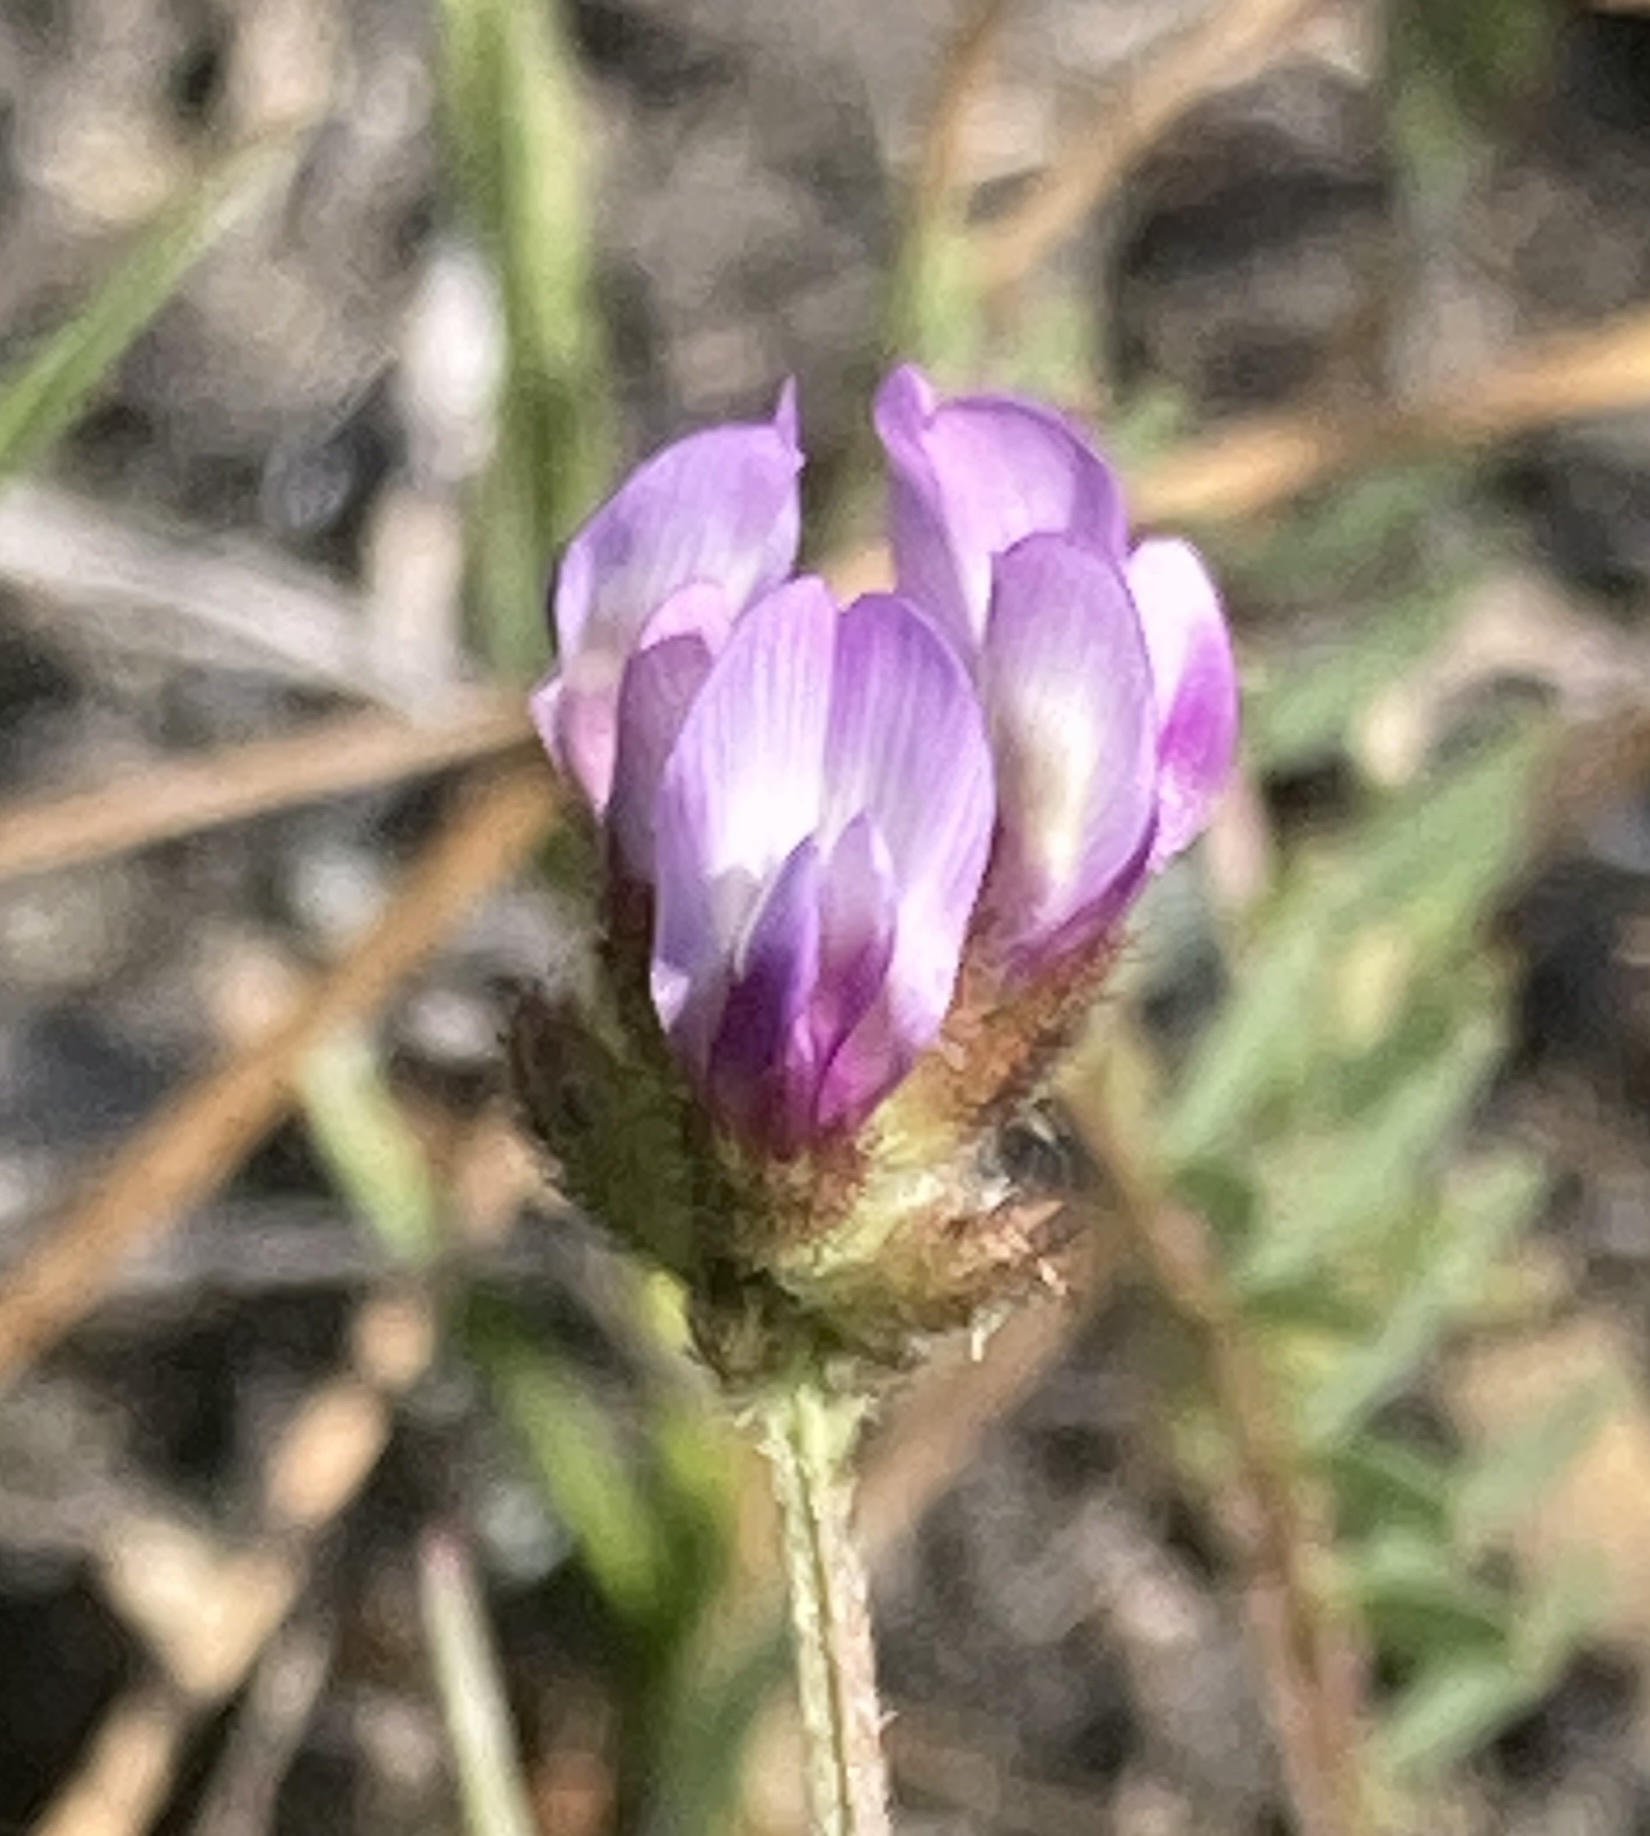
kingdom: Plantae
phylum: Tracheophyta
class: Magnoliopsida
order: Fabales
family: Fabaceae
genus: Astragalus
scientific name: Astragalus didymocarpus
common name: Dwarf white milkvetch
